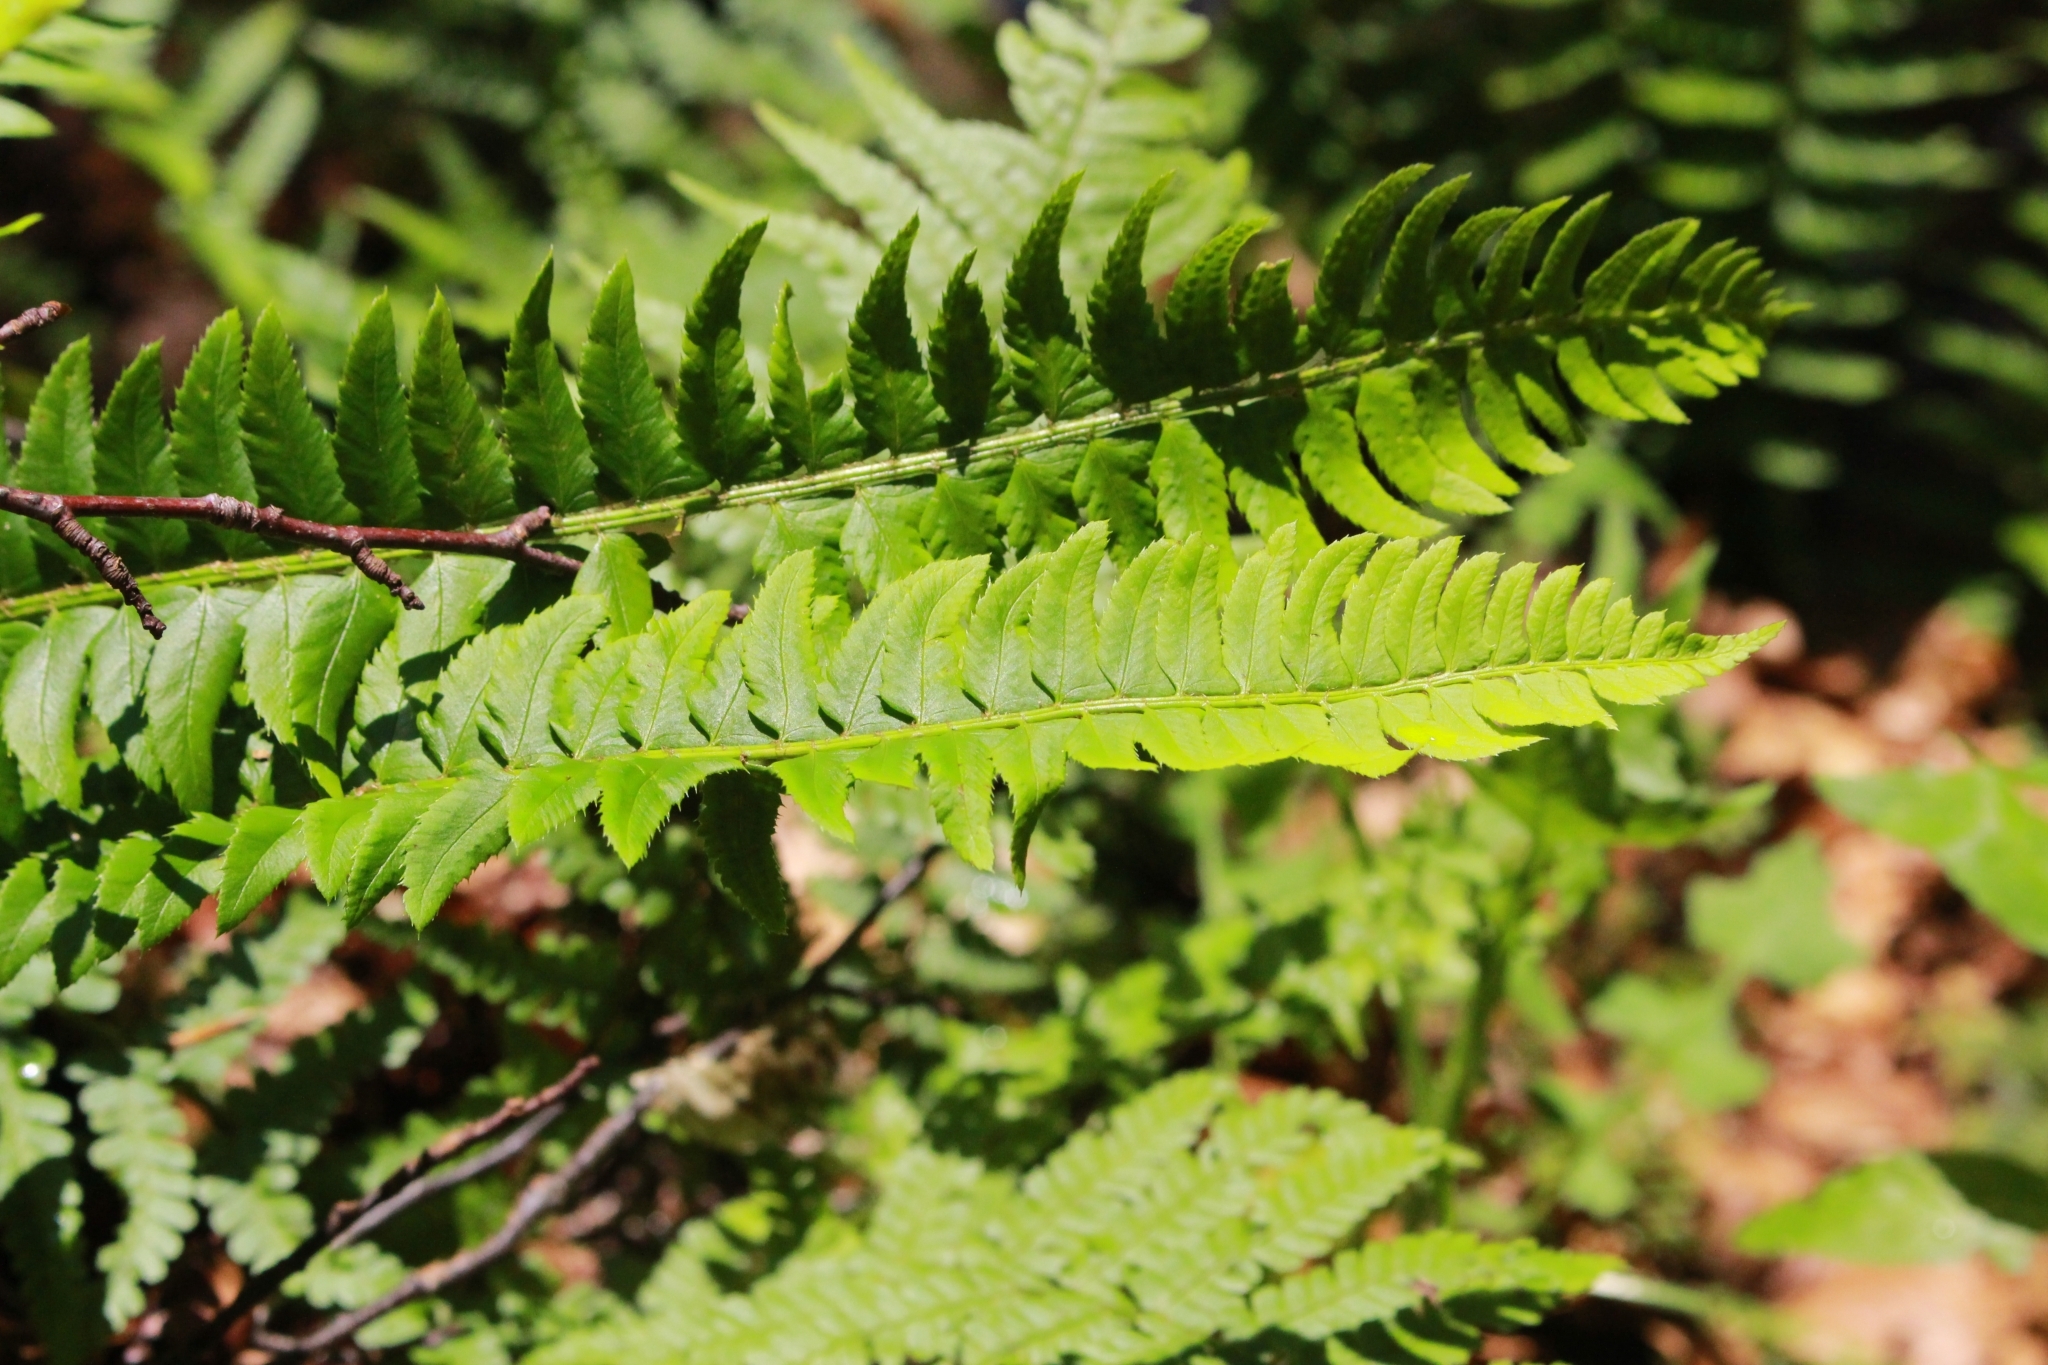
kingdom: Plantae
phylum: Tracheophyta
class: Polypodiopsida
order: Polypodiales
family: Dryopteridaceae
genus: Polystichum
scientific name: Polystichum lonchitis
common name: Holly fern
